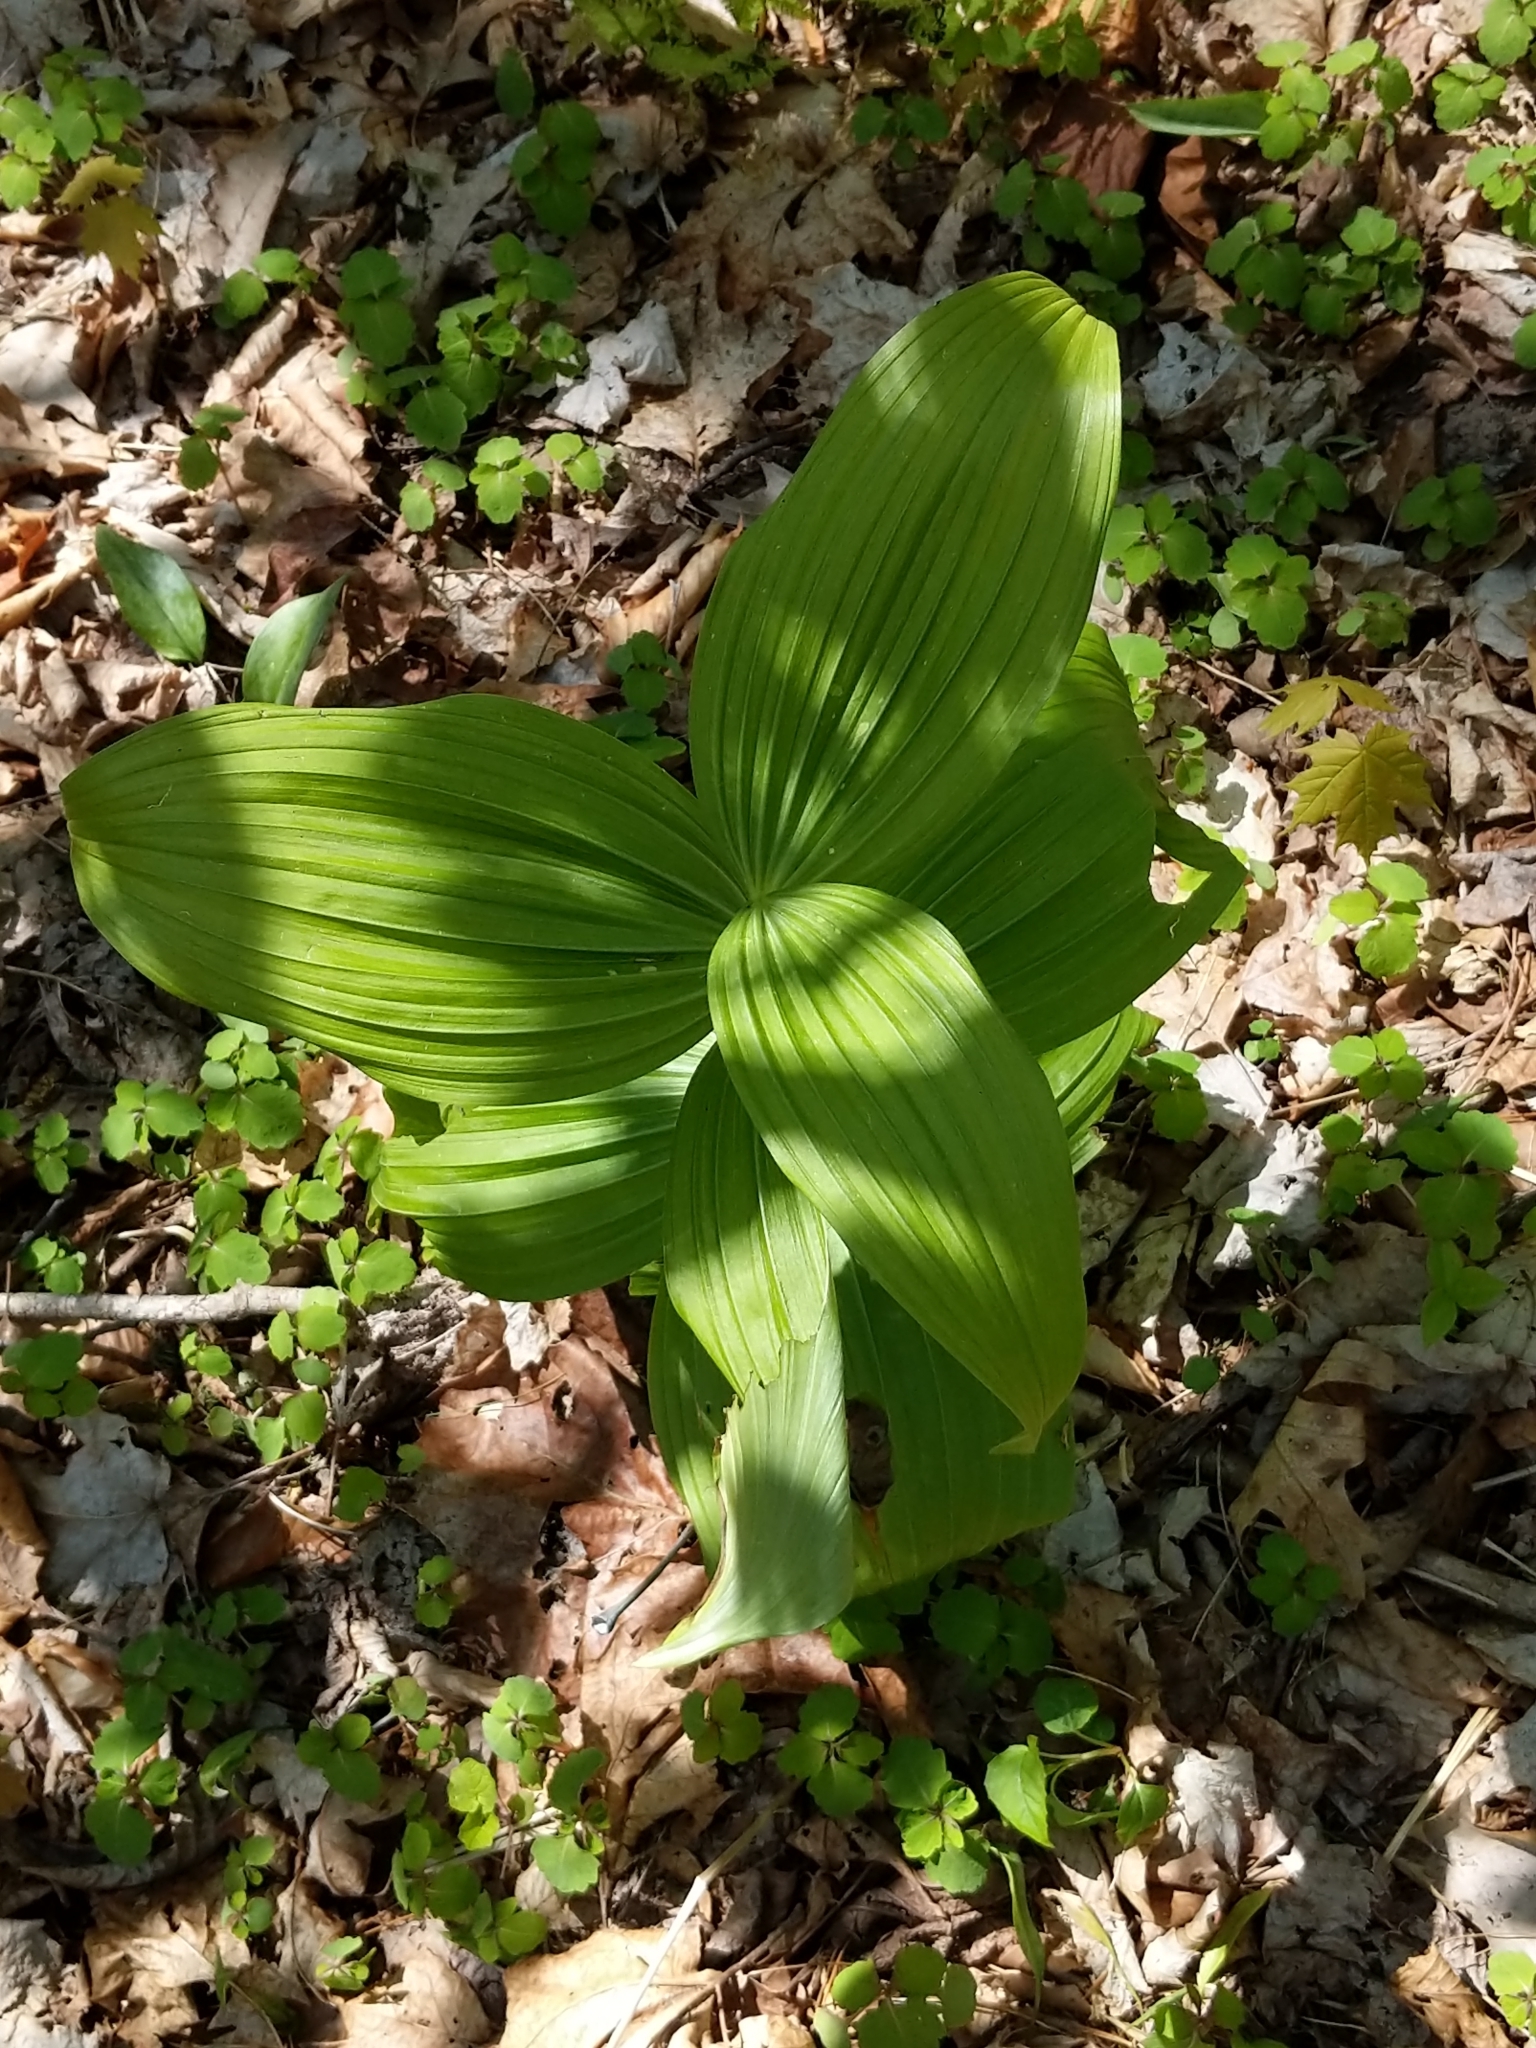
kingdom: Plantae
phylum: Tracheophyta
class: Liliopsida
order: Liliales
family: Melanthiaceae
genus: Veratrum
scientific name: Veratrum viride
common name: American false hellebore
